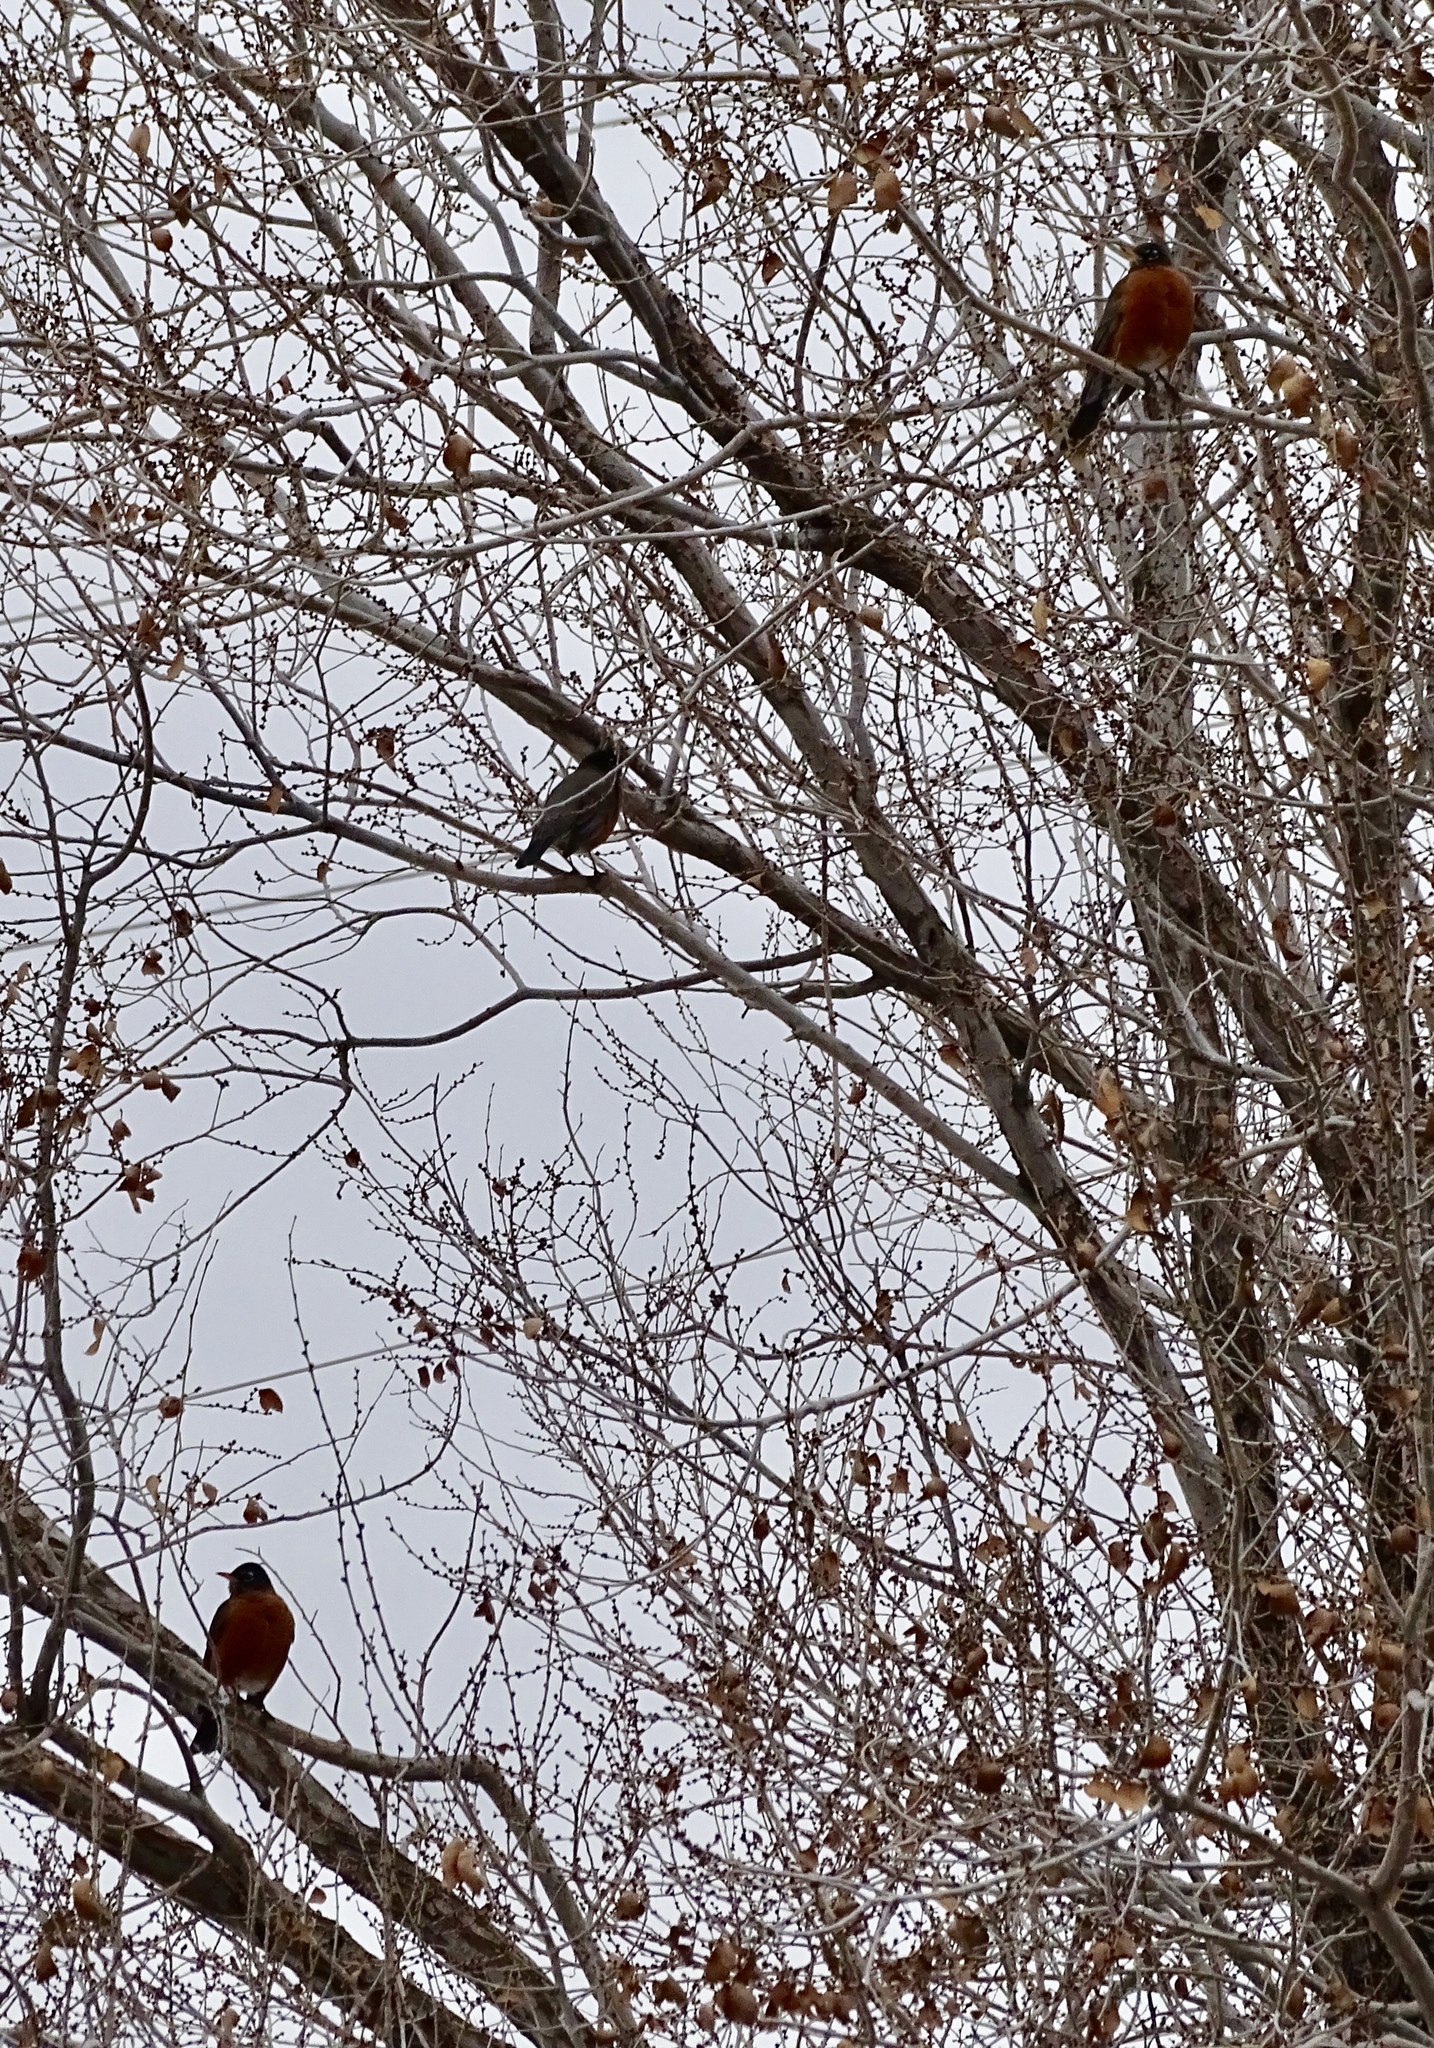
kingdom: Animalia
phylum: Chordata
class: Aves
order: Passeriformes
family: Turdidae
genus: Turdus
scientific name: Turdus migratorius
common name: American robin
